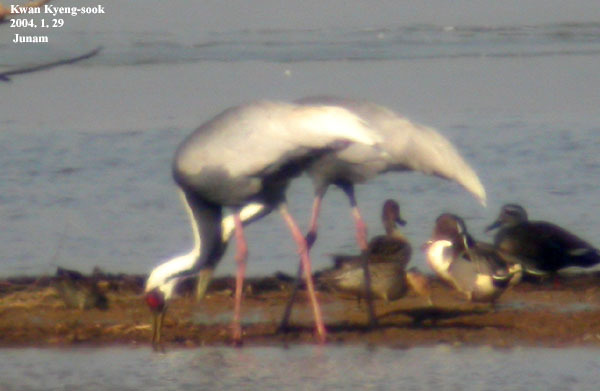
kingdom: Animalia
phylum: Chordata
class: Aves
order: Gruiformes
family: Gruidae
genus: Grus
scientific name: Grus vipio
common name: White-naped crane
